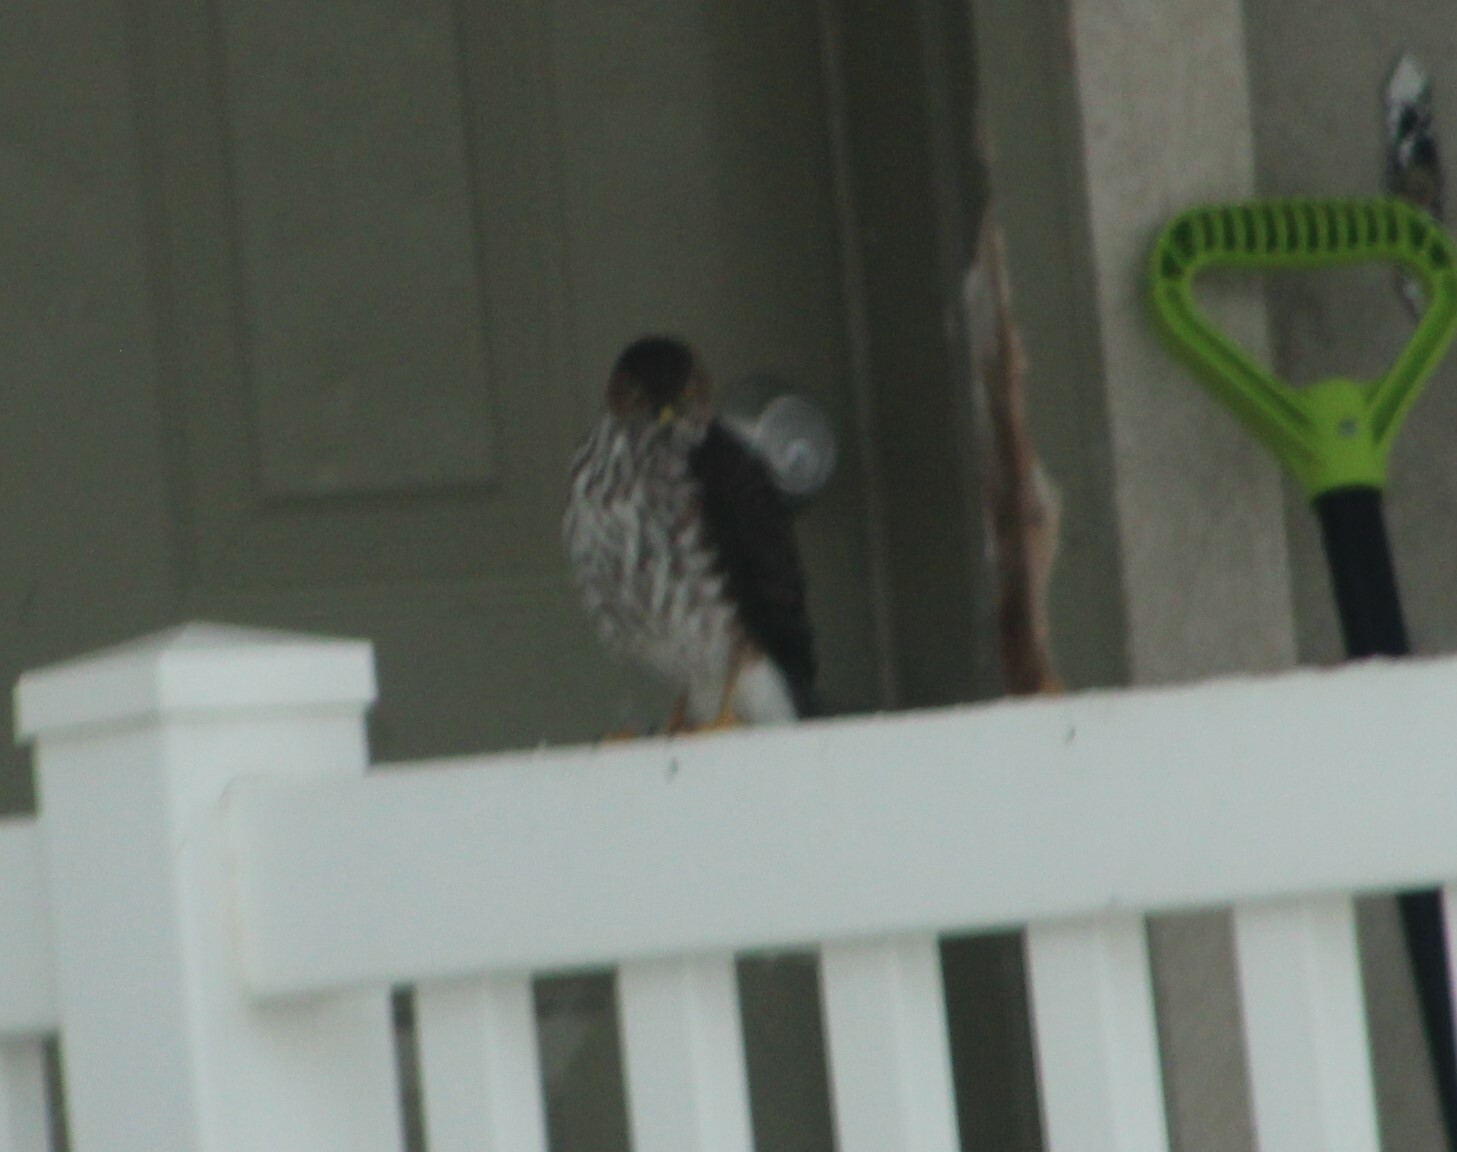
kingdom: Animalia
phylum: Chordata
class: Aves
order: Accipitriformes
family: Accipitridae
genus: Accipiter
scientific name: Accipiter striatus
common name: Sharp-shinned hawk
